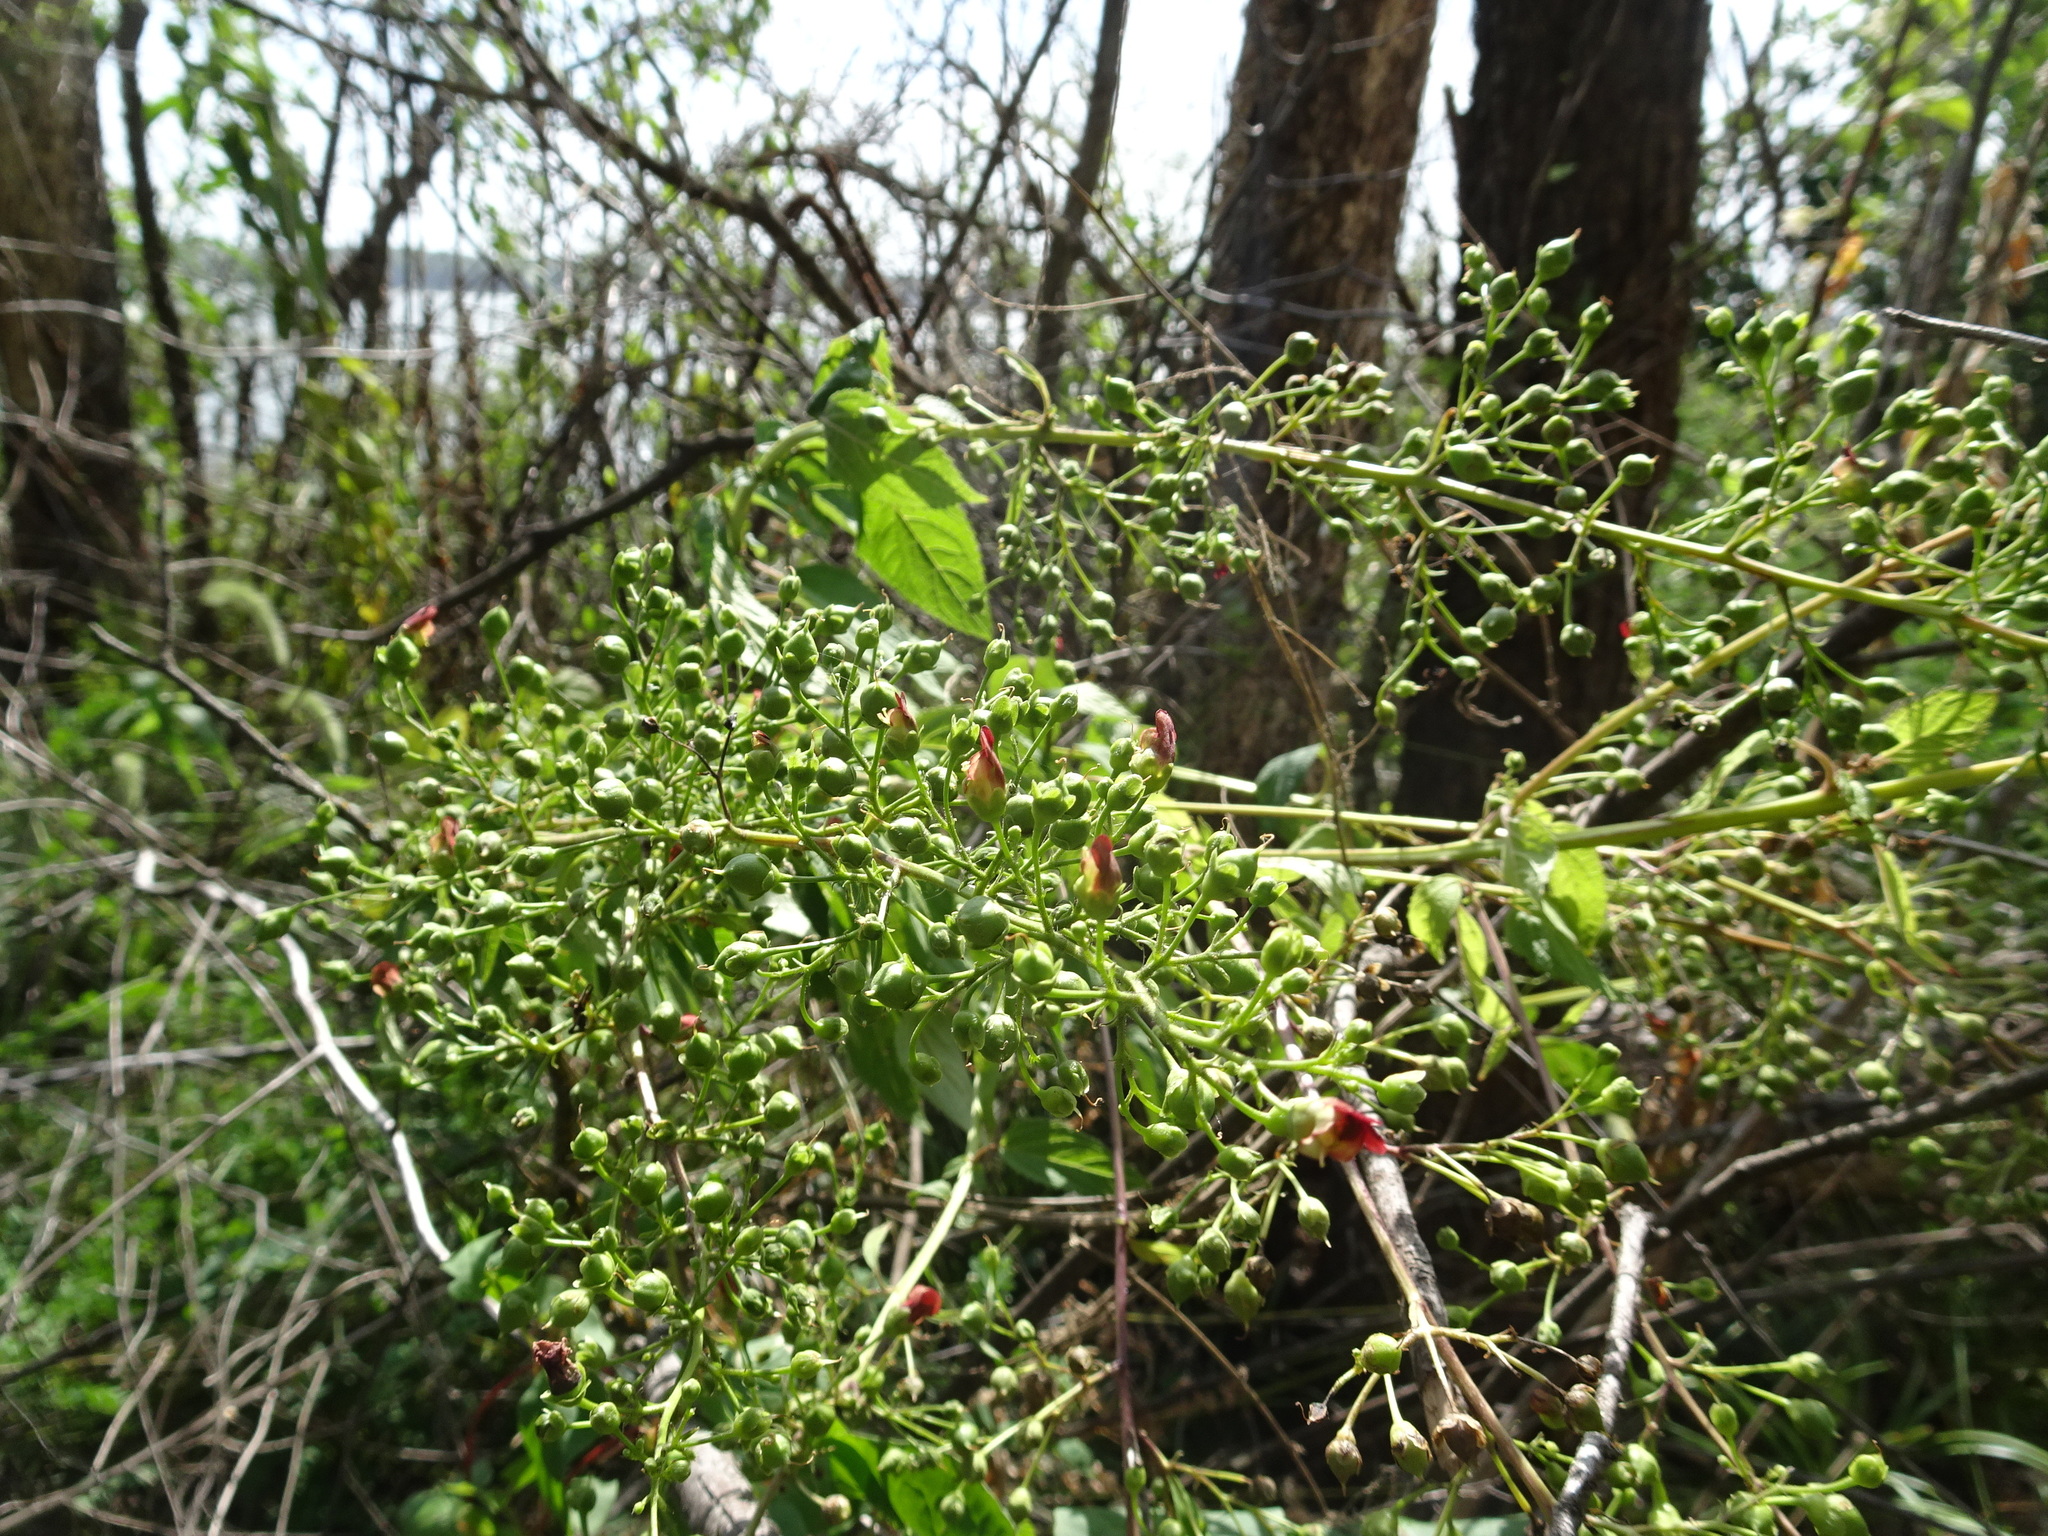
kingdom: Plantae
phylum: Tracheophyta
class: Magnoliopsida
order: Lamiales
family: Scrophulariaceae
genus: Scrophularia
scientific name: Scrophularia marilandica
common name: Eastern figwort
